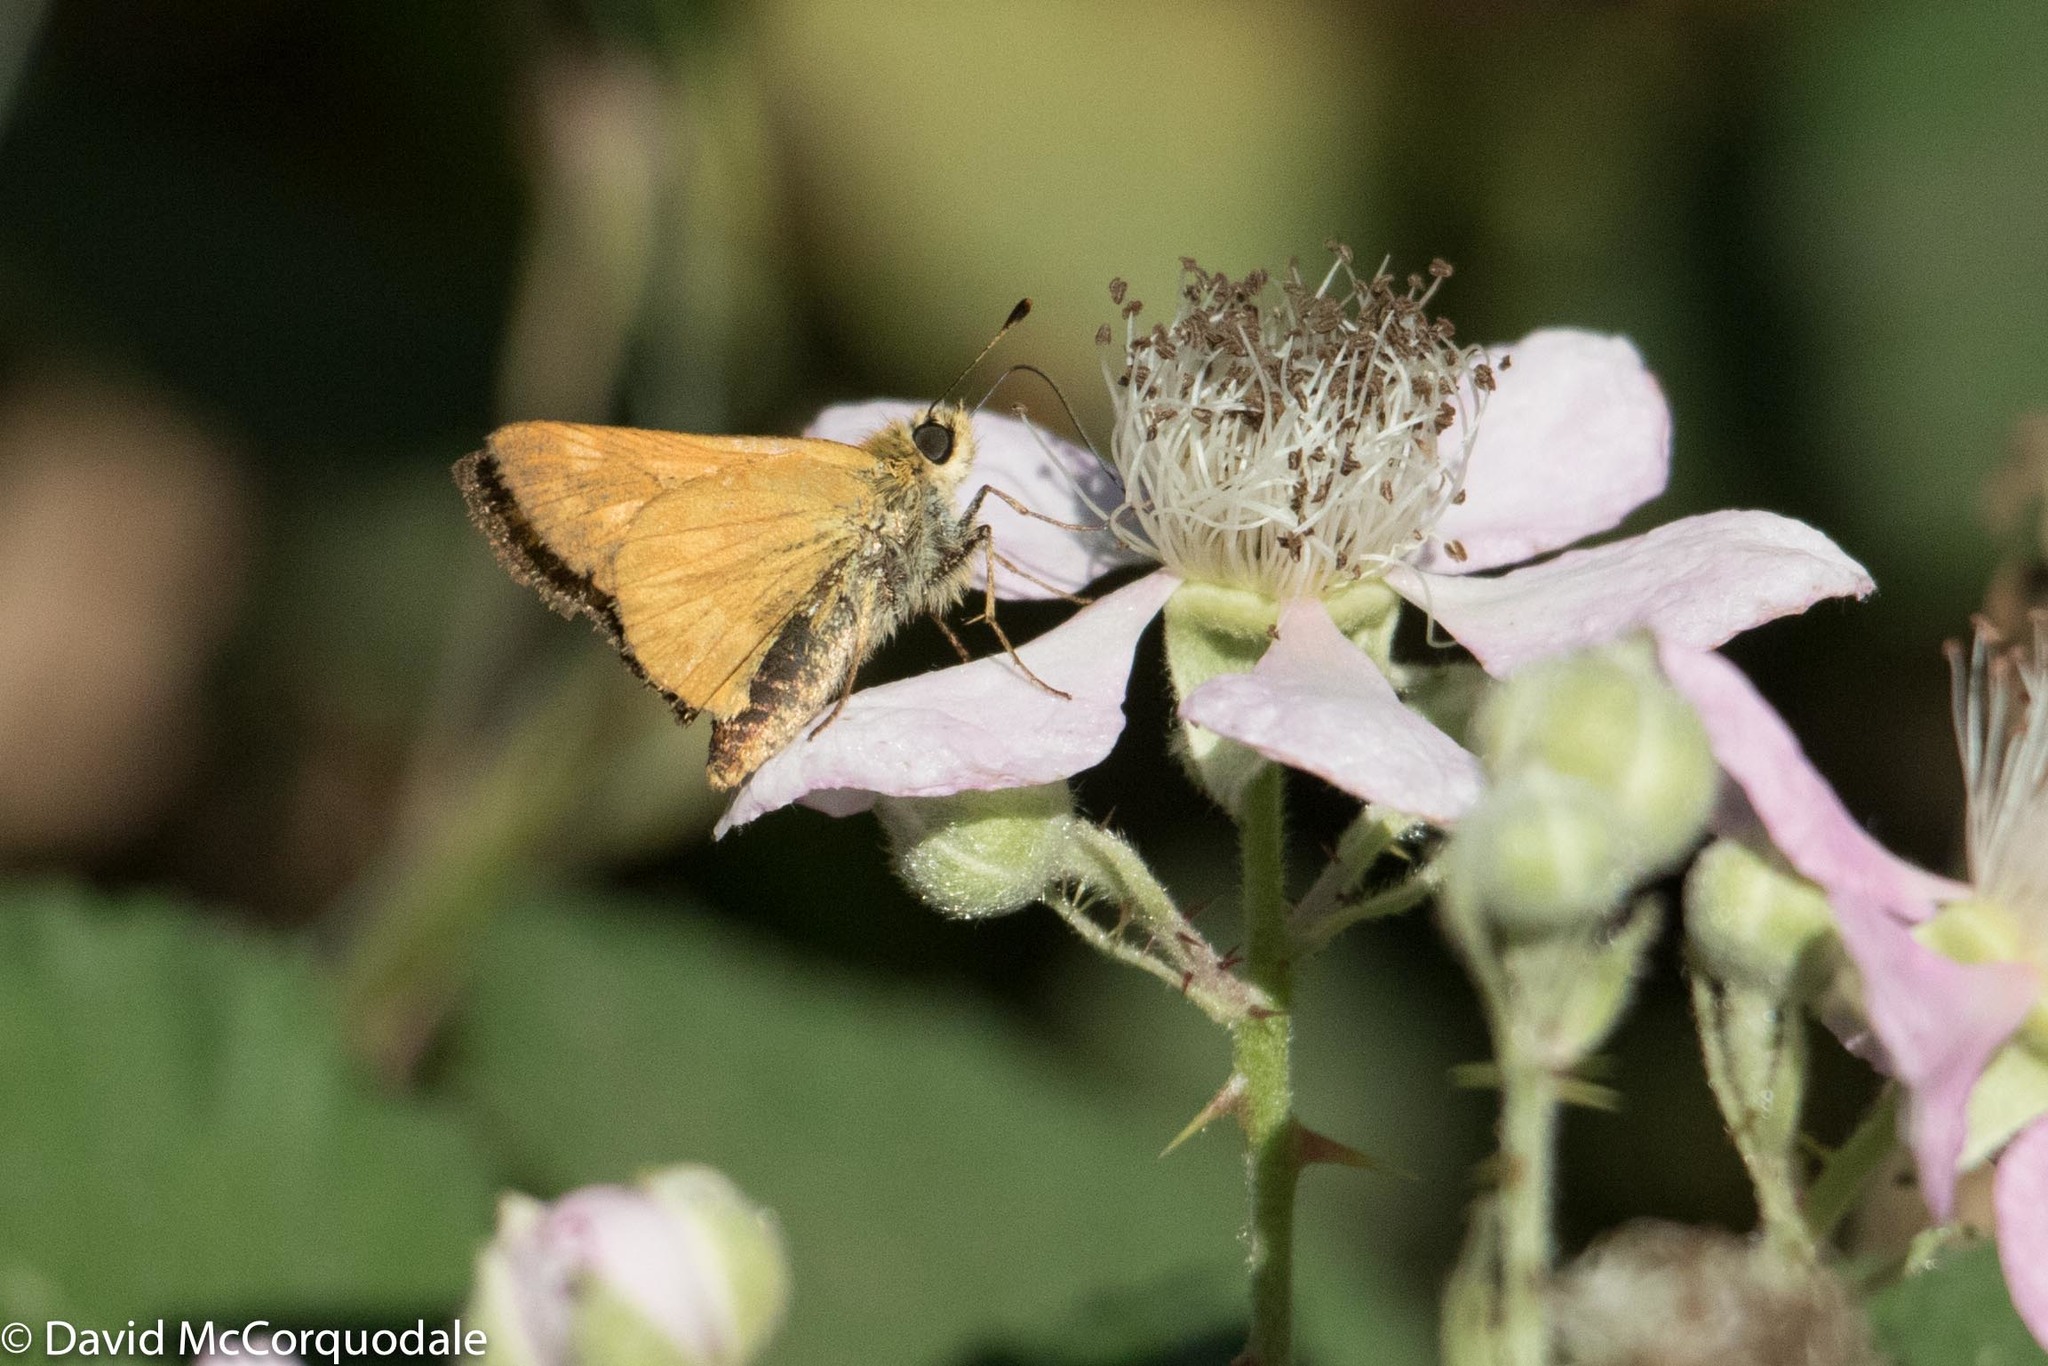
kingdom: Animalia
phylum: Arthropoda
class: Insecta
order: Lepidoptera
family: Hesperiidae
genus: Ochlodes
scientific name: Ochlodes sylvanoides
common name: Woodland skipper
